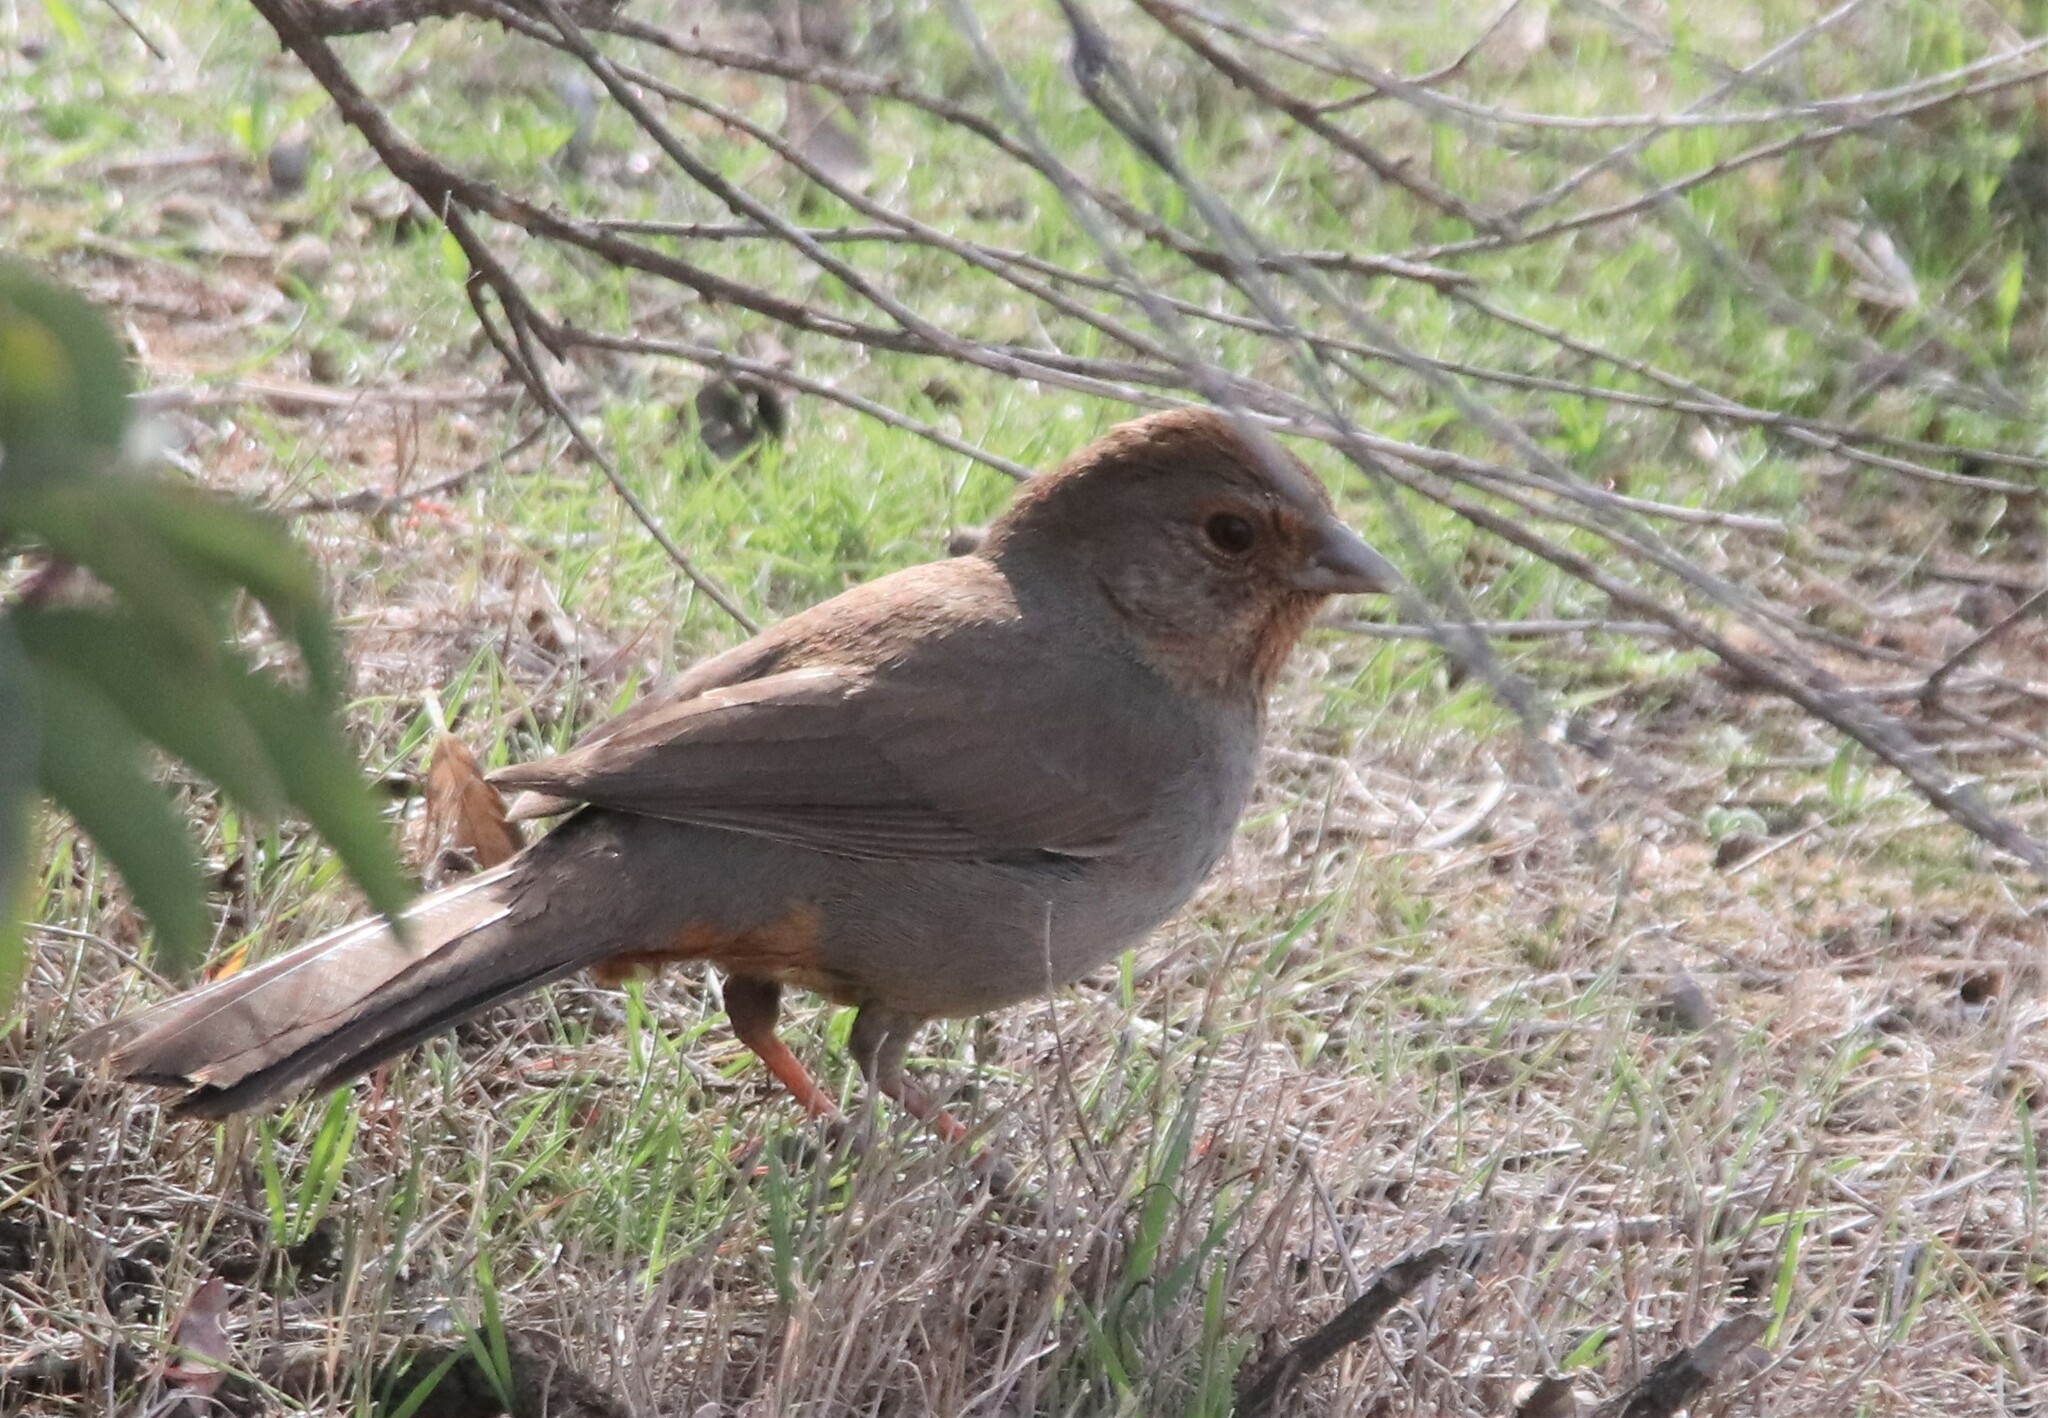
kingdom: Animalia
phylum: Chordata
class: Aves
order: Passeriformes
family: Passerellidae
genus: Melozone
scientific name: Melozone crissalis
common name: California towhee
